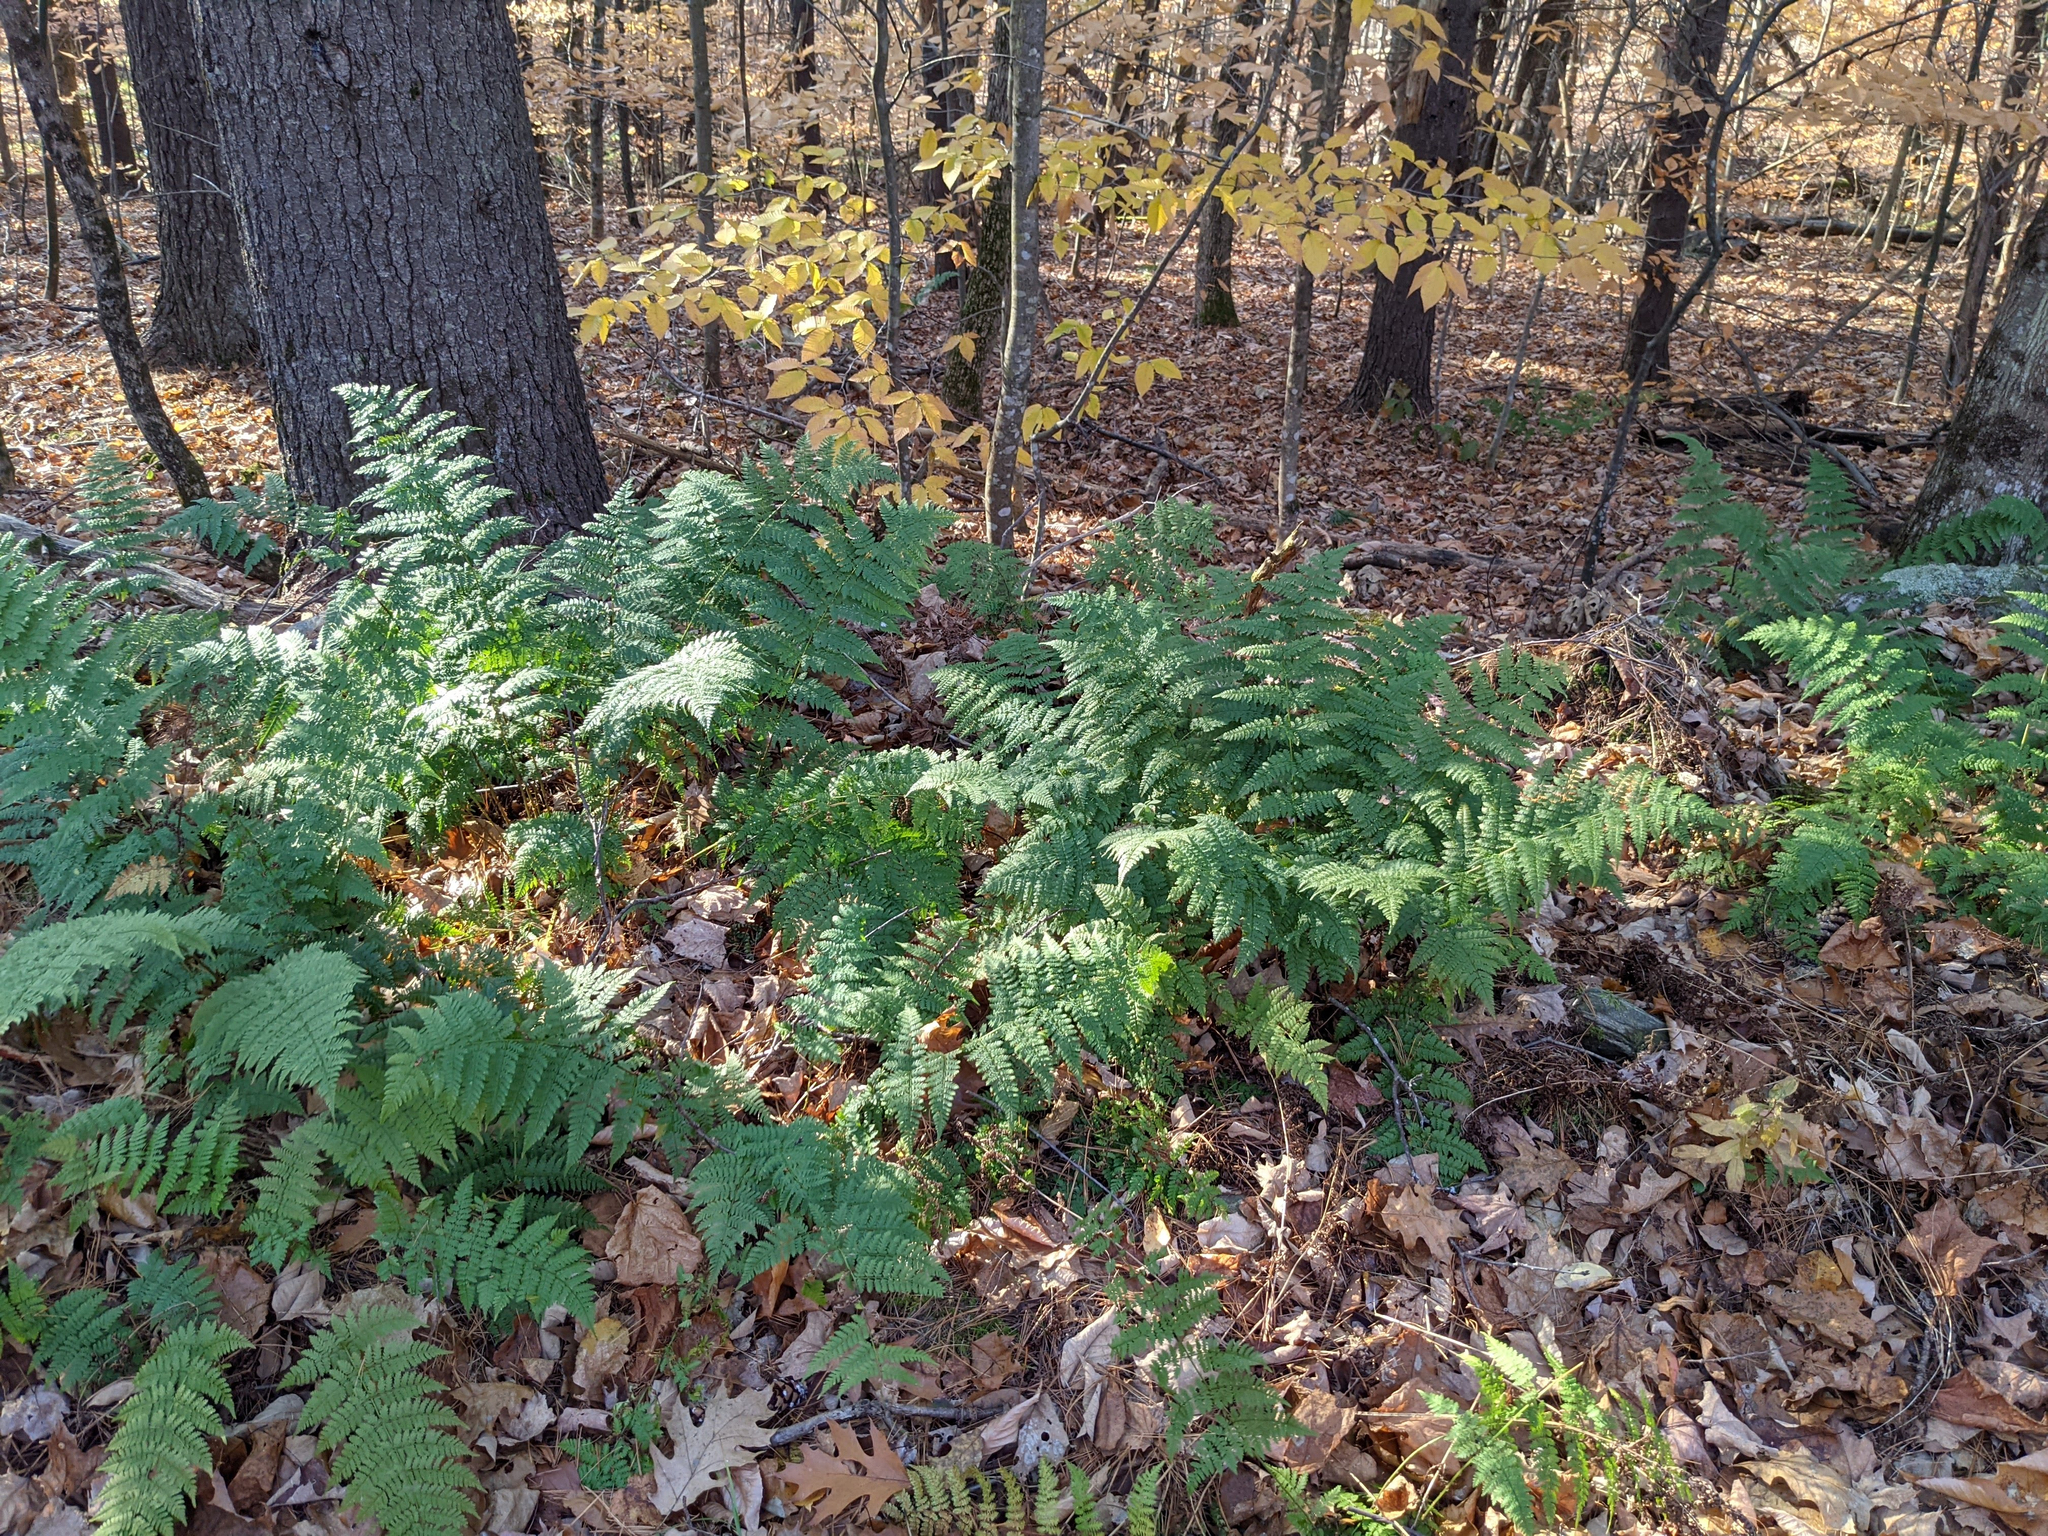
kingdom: Plantae
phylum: Tracheophyta
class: Polypodiopsida
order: Polypodiales
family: Dryopteridaceae
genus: Dryopteris
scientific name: Dryopteris intermedia
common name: Evergreen wood fern
